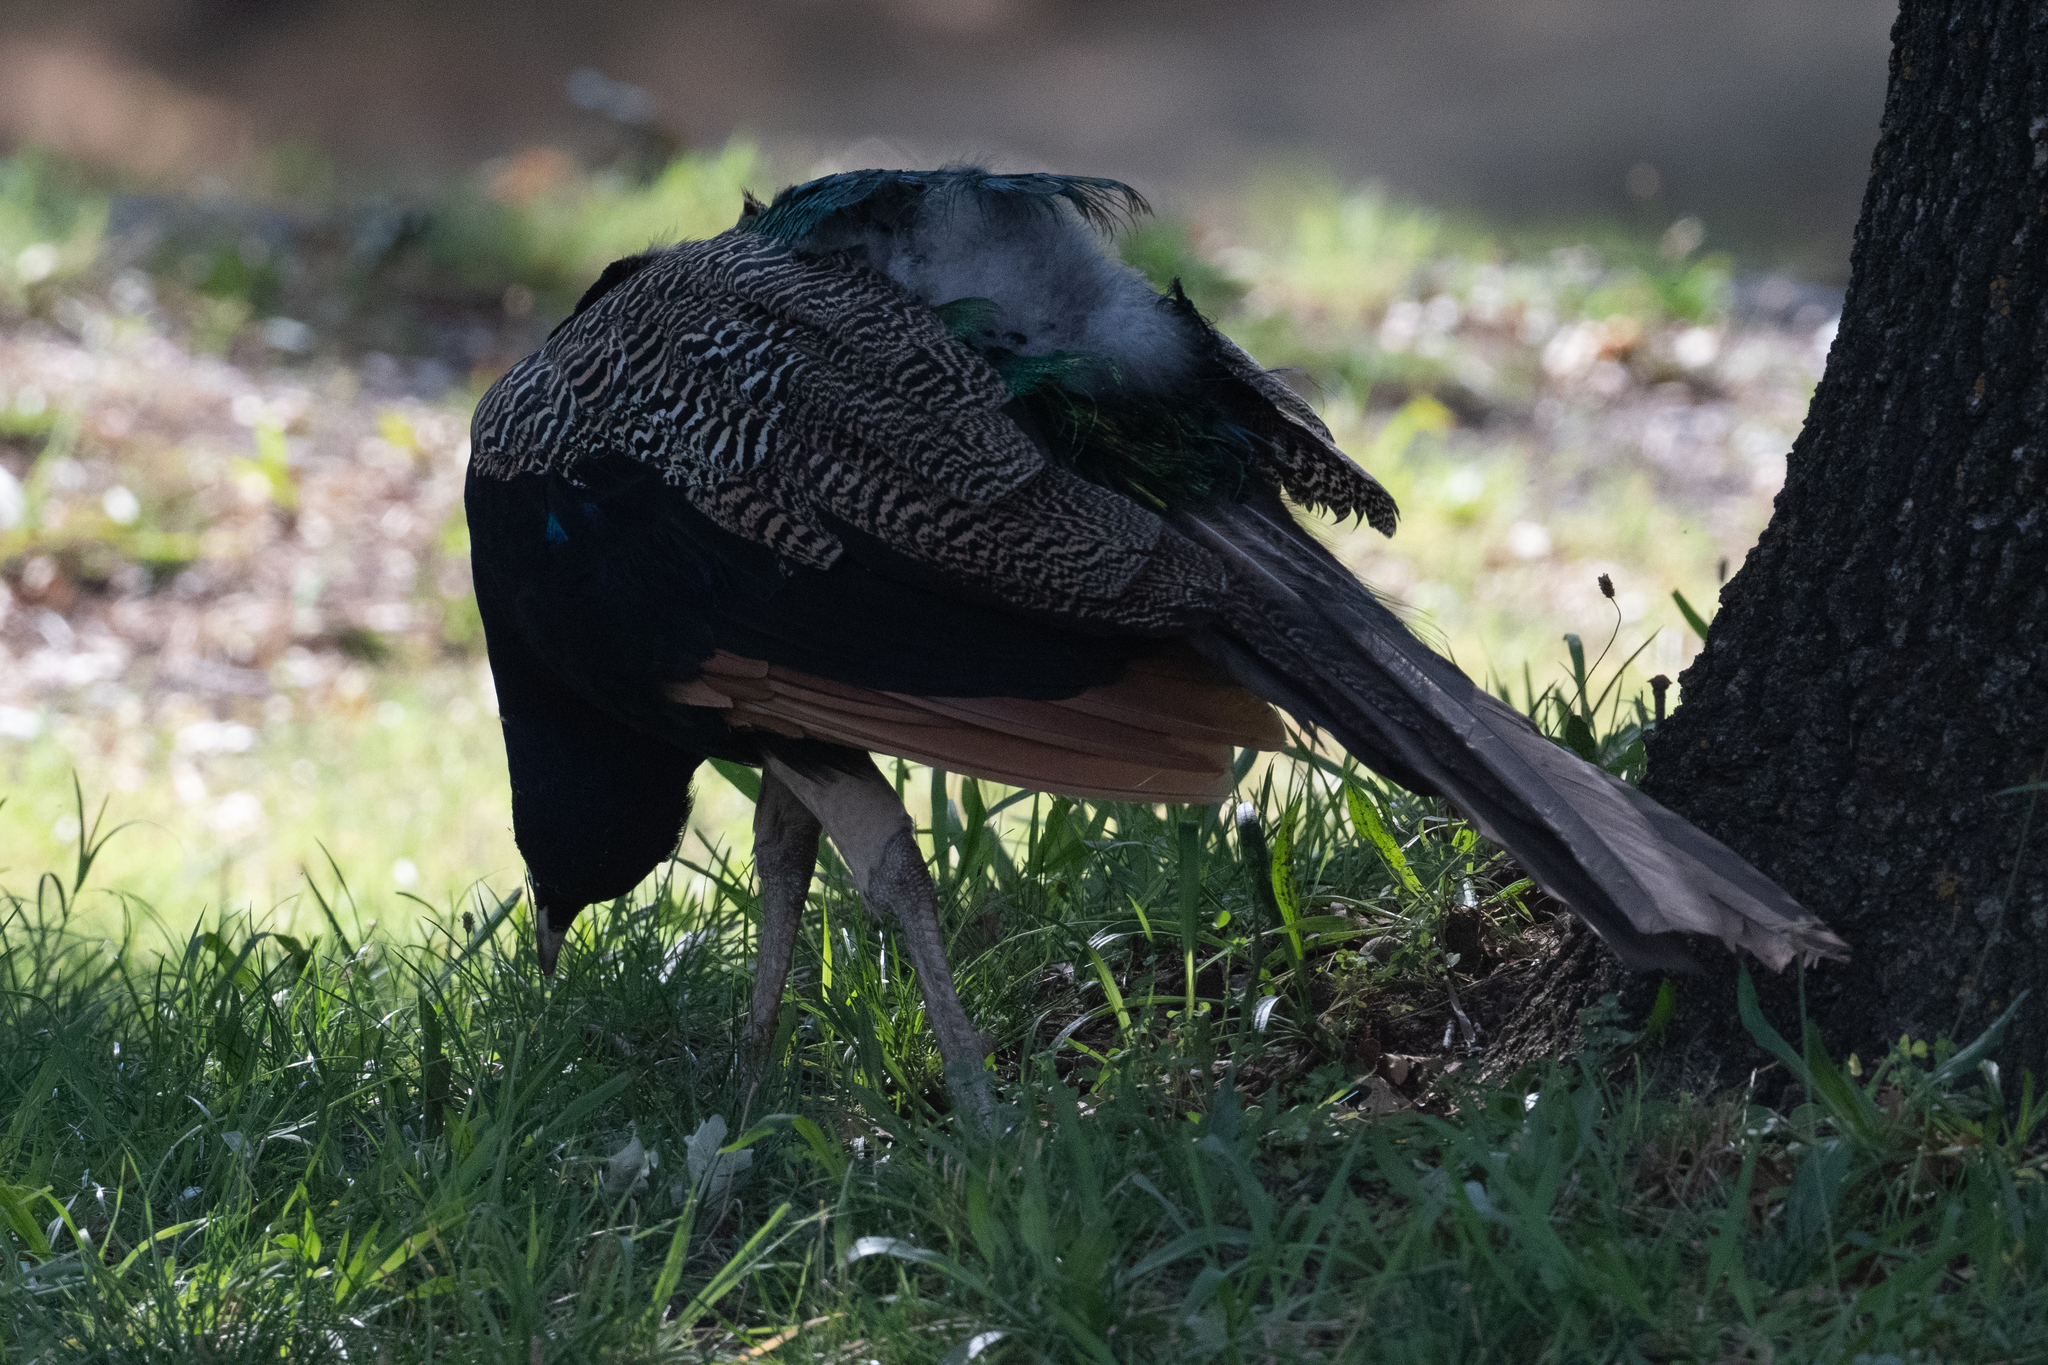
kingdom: Animalia
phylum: Chordata
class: Aves
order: Galliformes
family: Phasianidae
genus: Pavo
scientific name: Pavo cristatus
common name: Indian peafowl
